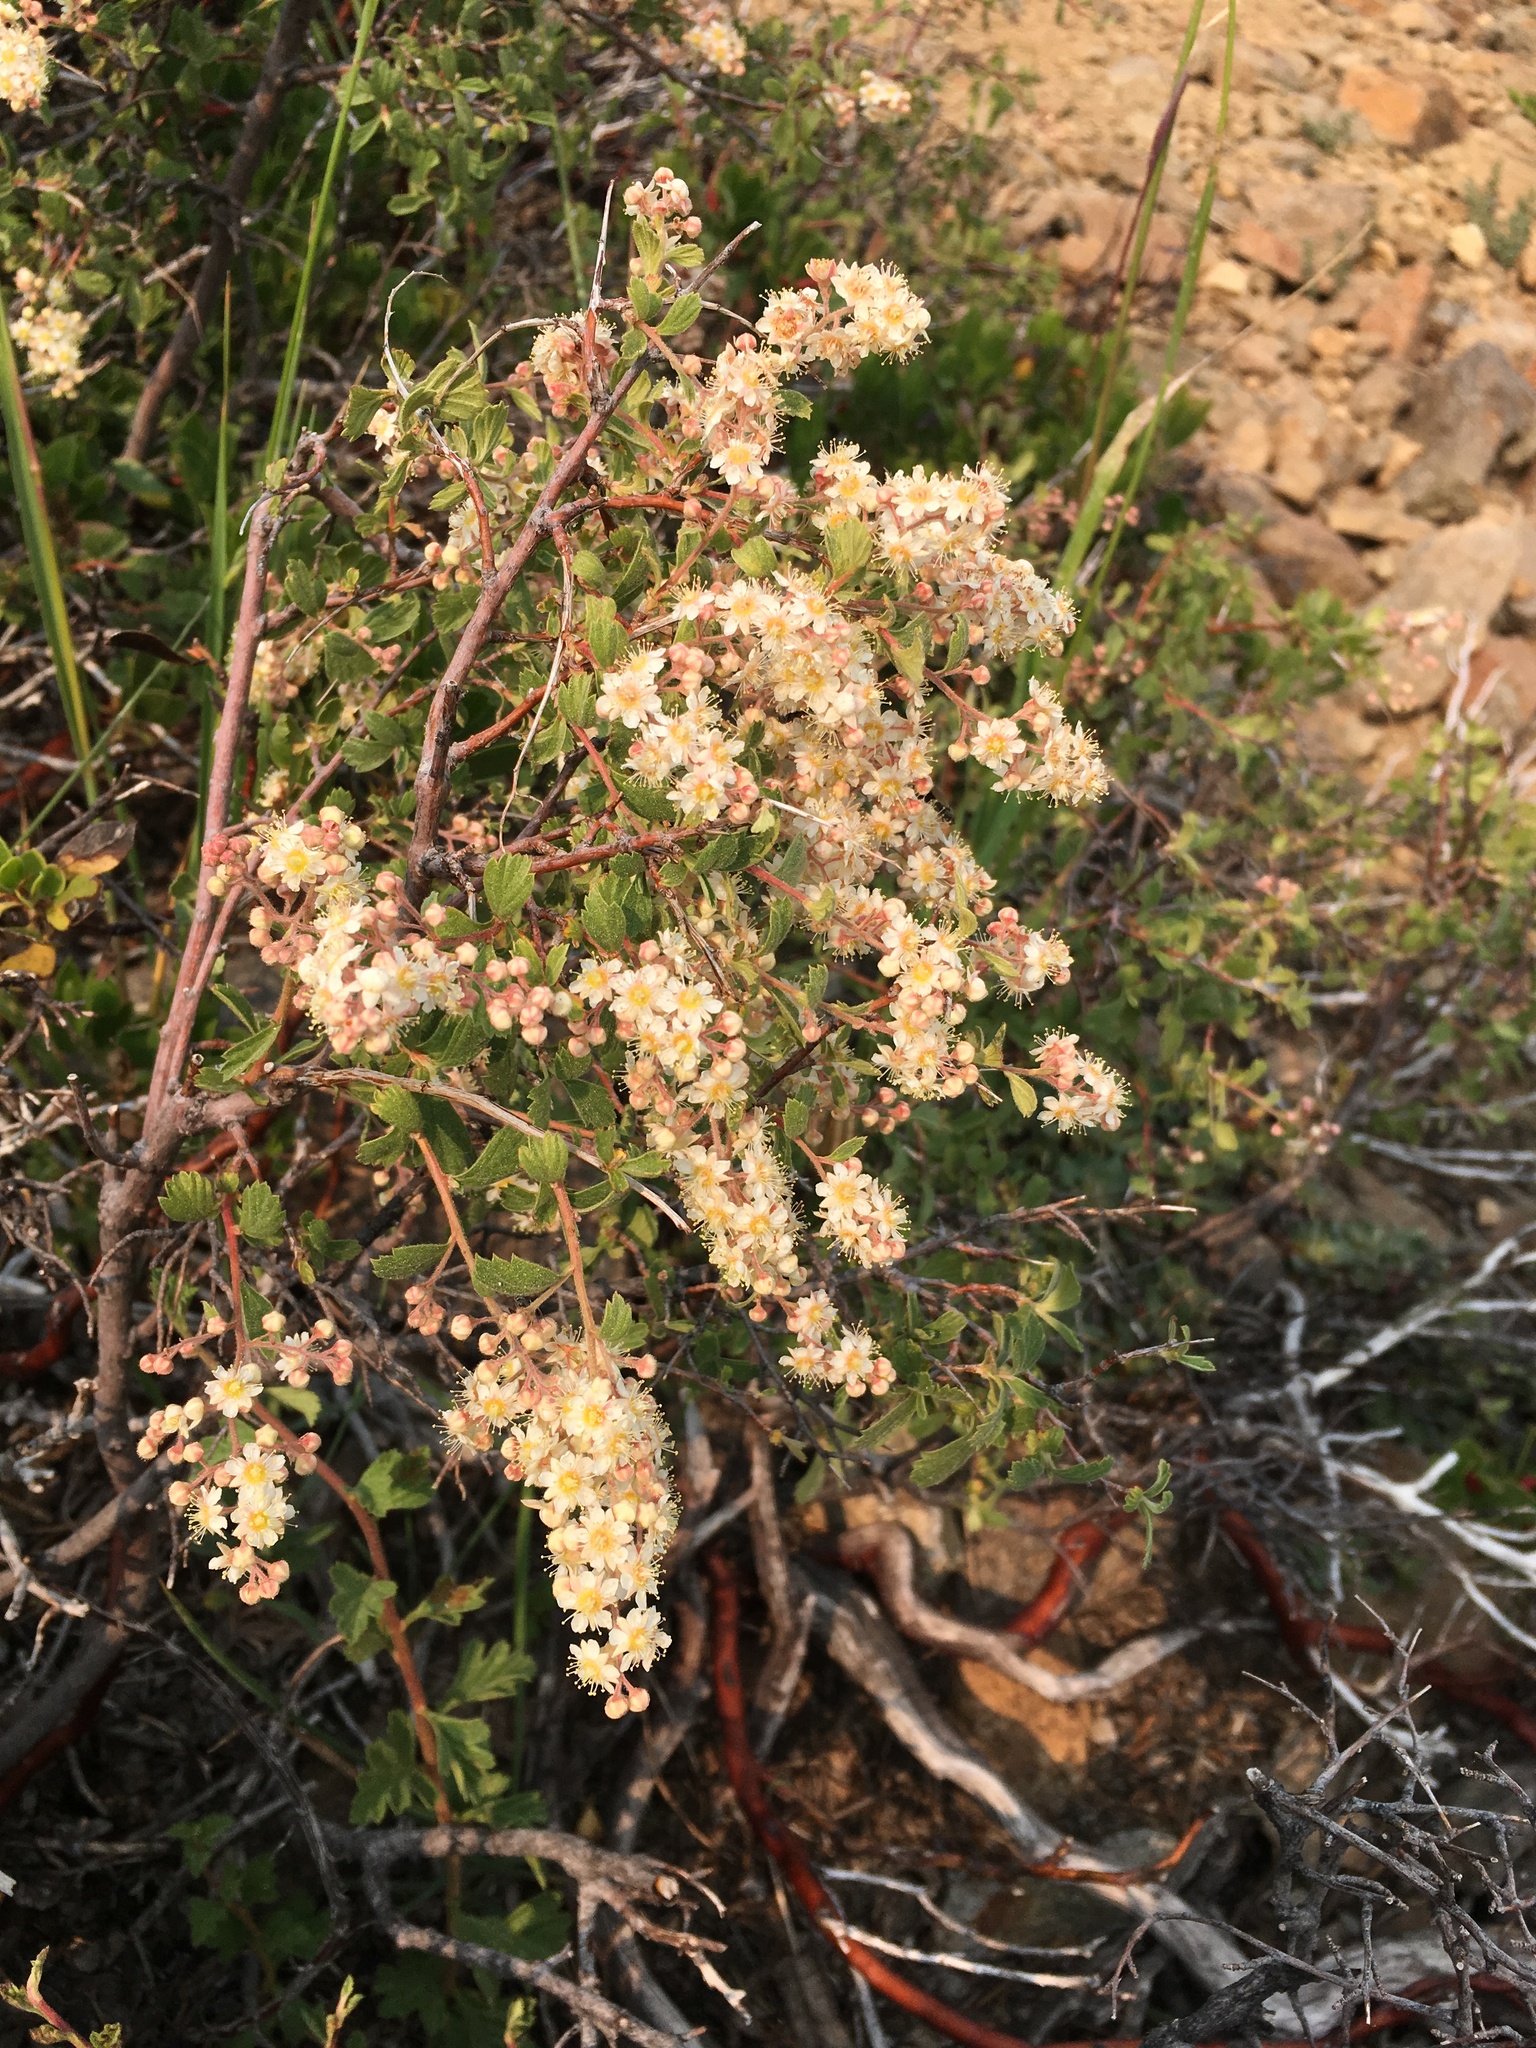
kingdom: Plantae
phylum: Tracheophyta
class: Magnoliopsida
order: Rosales
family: Rosaceae
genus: Holodiscus
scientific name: Holodiscus discolor
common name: Oceanspray
